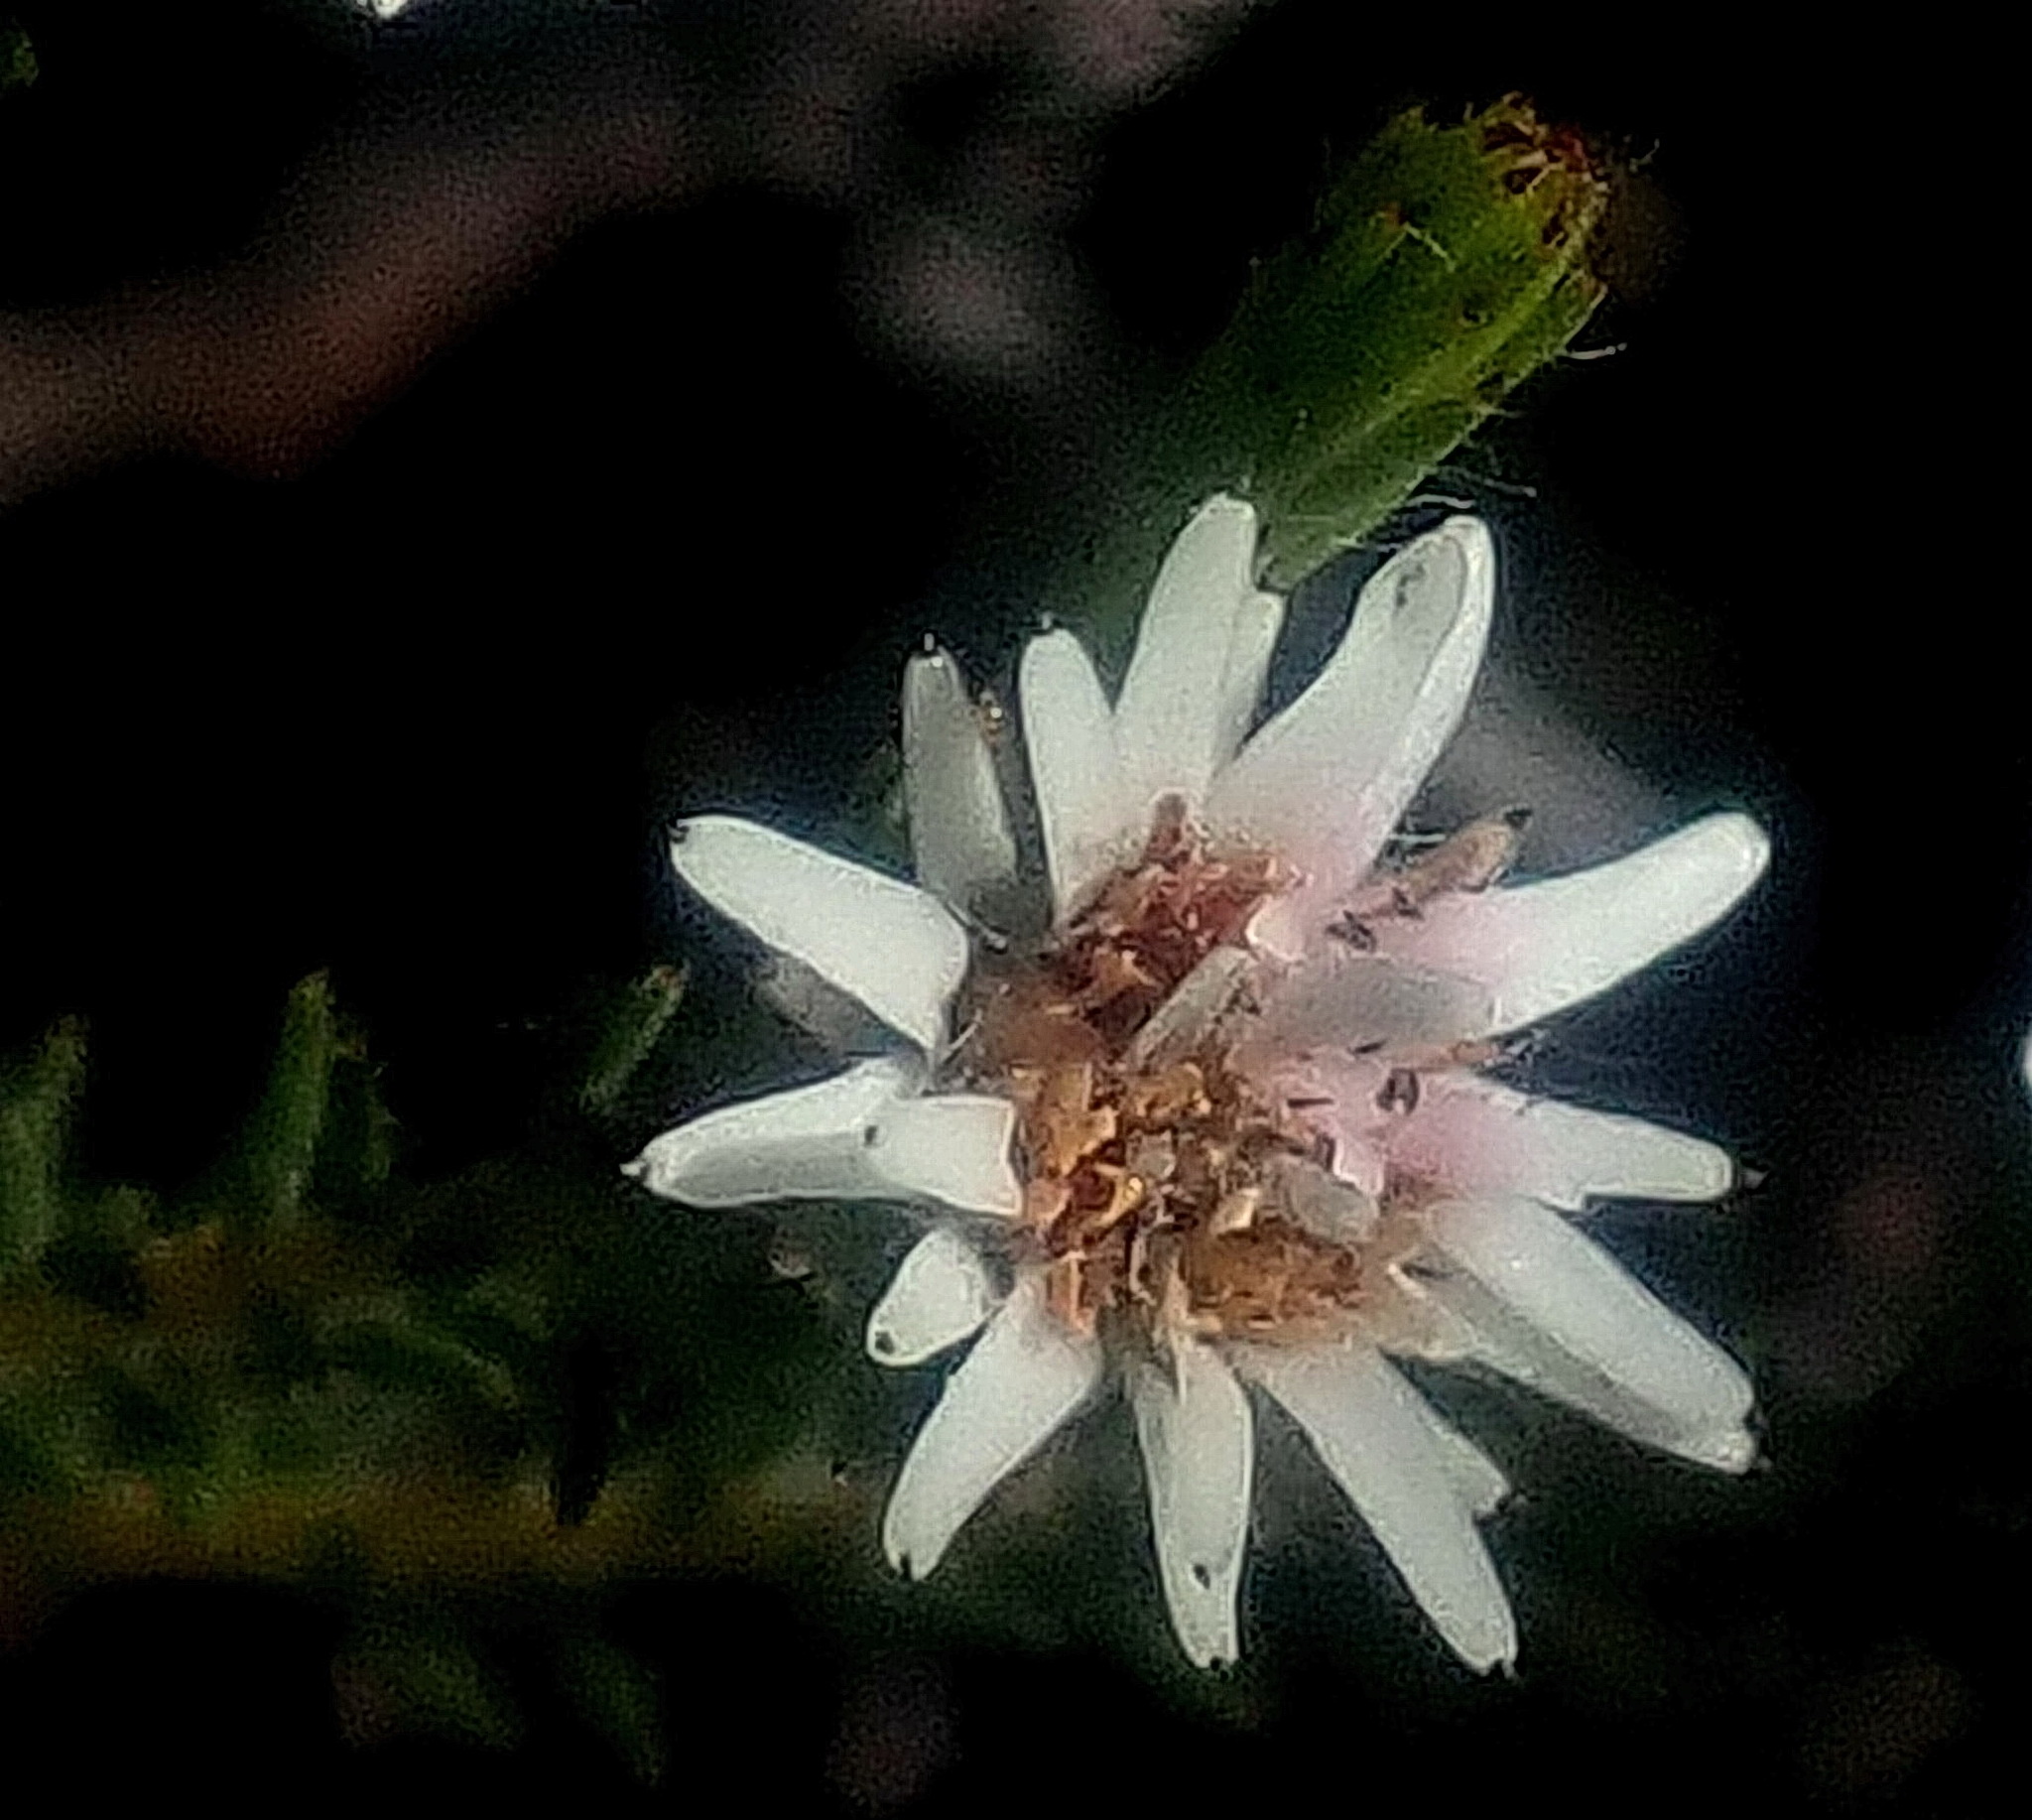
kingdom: Plantae
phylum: Tracheophyta
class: Magnoliopsida
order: Bruniales
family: Bruniaceae
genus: Staavia
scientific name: Staavia radiata
